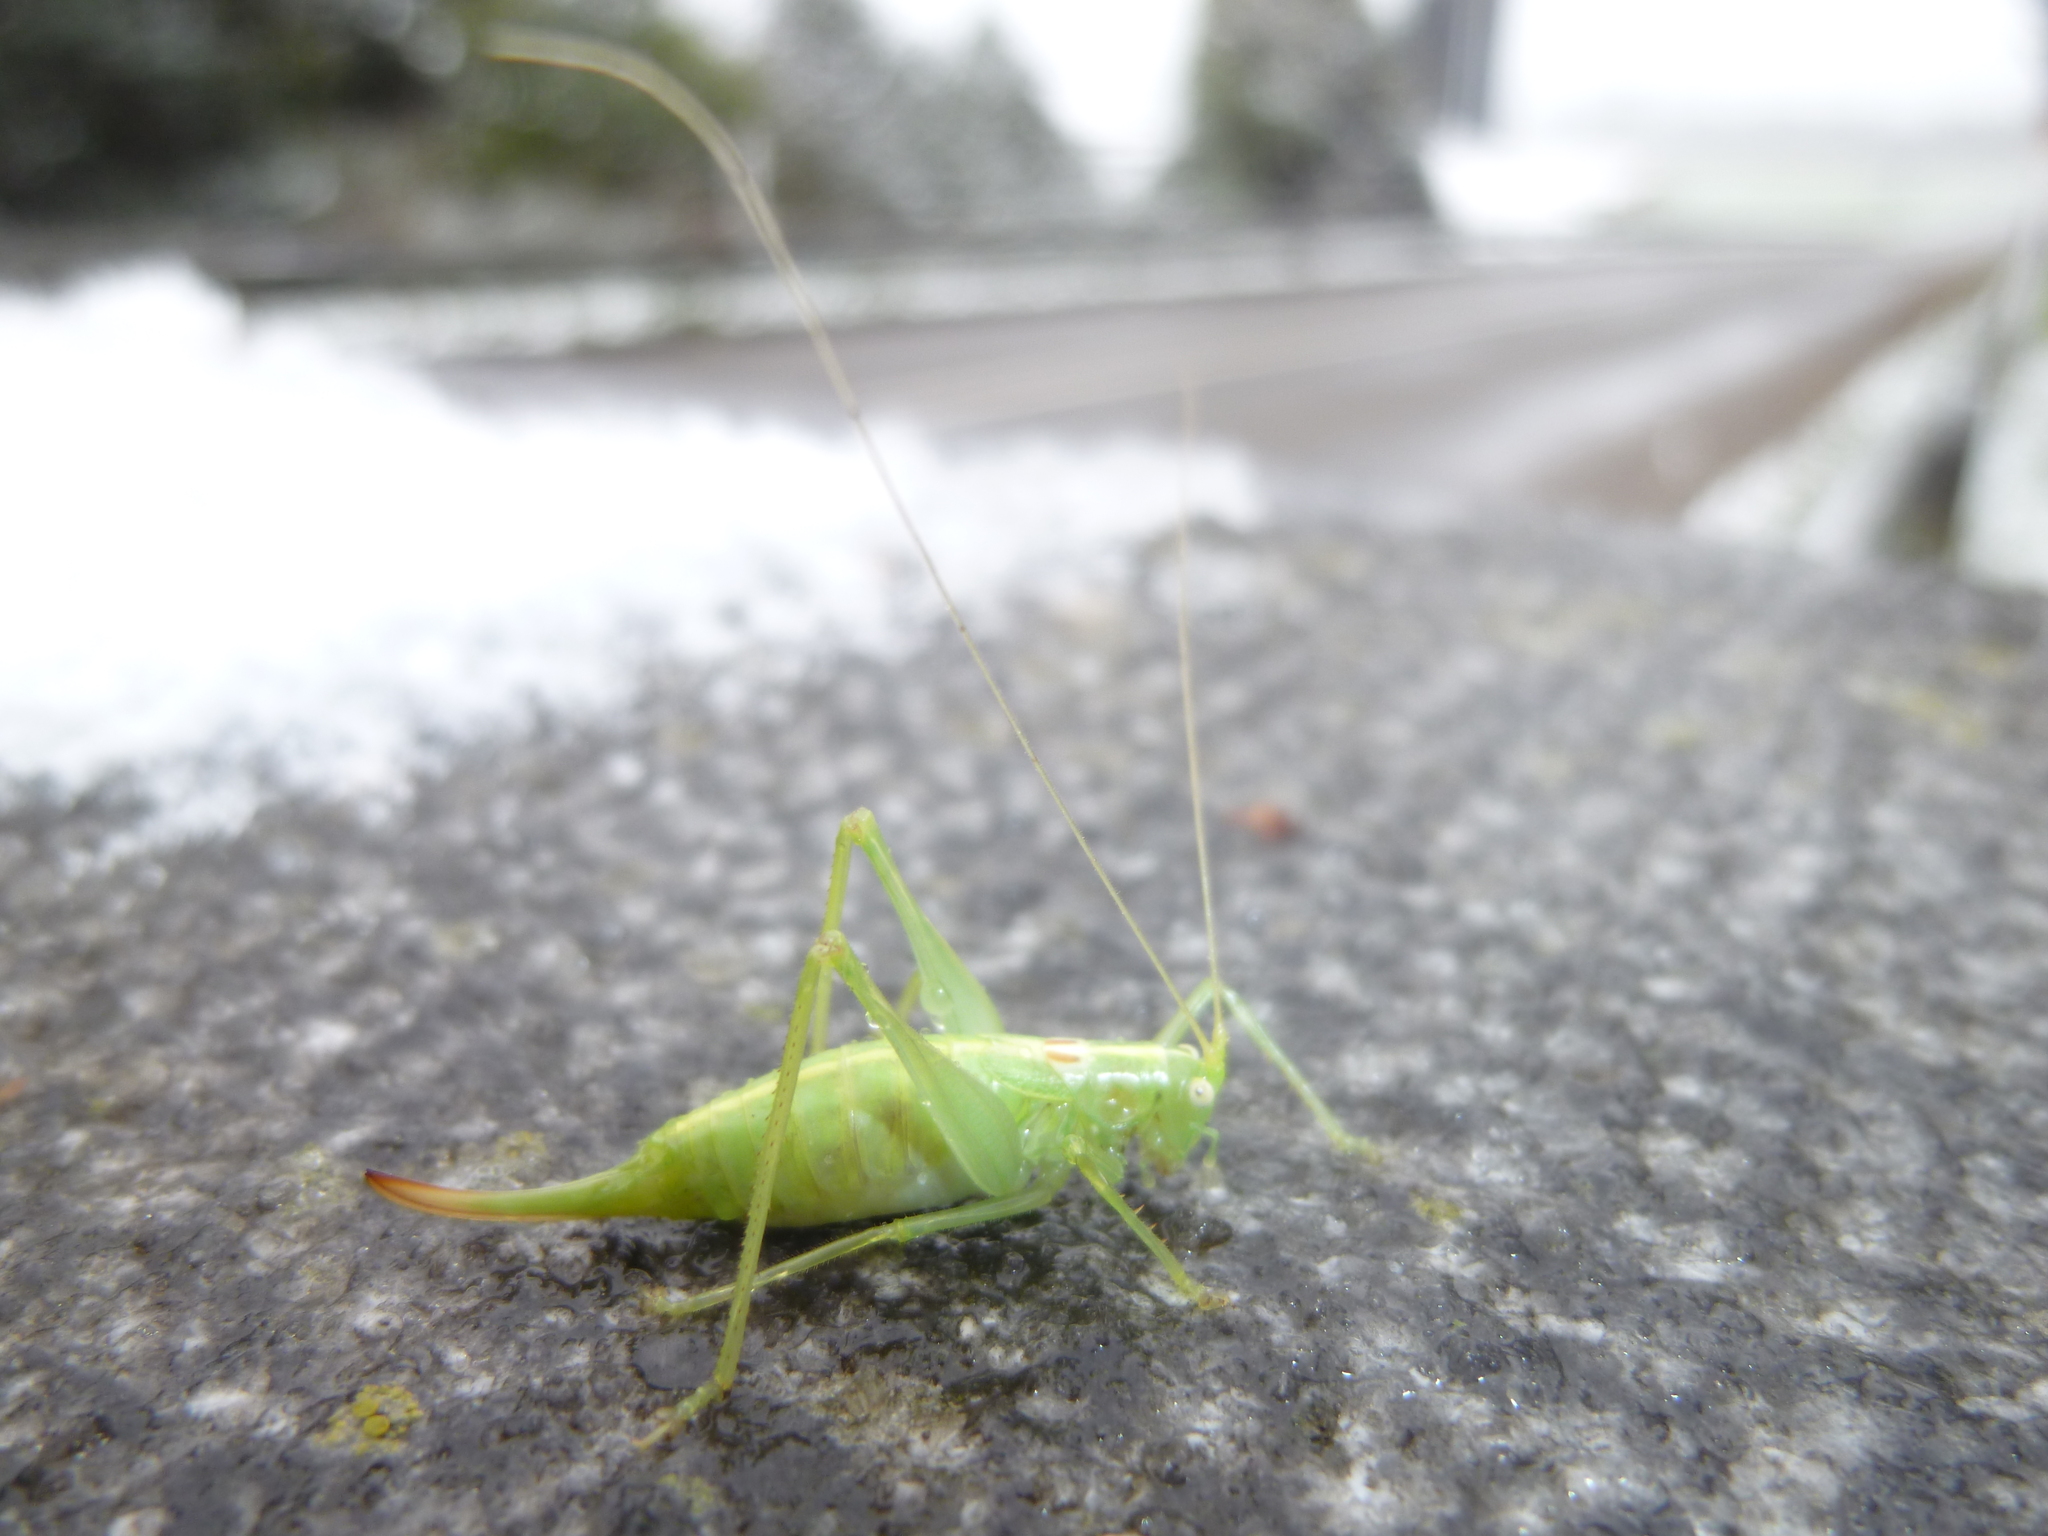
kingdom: Animalia
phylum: Arthropoda
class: Insecta
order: Orthoptera
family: Tettigoniidae
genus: Meconema
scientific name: Meconema meridionale
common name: Southern oak bush-cricket
